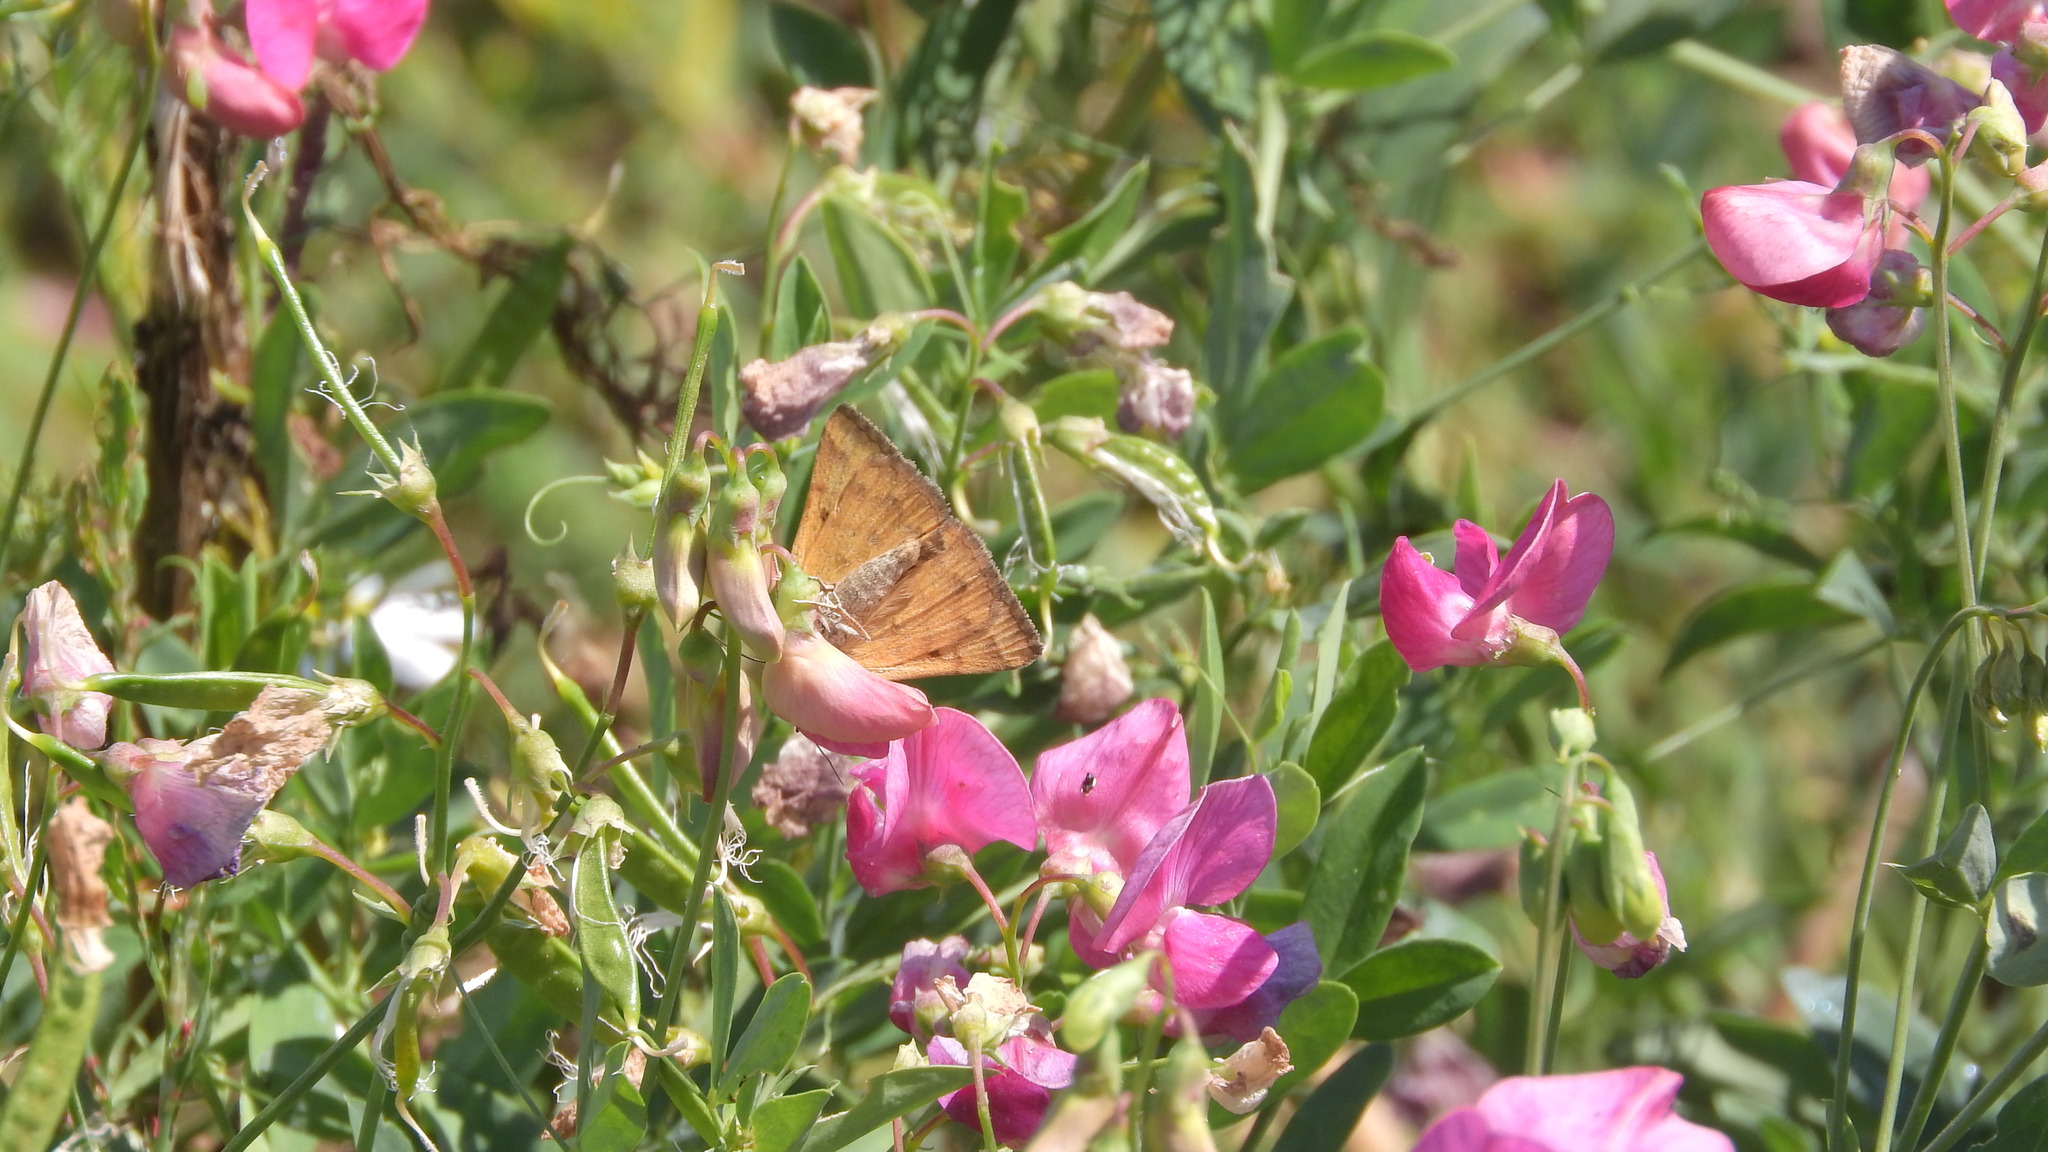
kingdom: Animalia
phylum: Arthropoda
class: Insecta
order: Lepidoptera
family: Erebidae
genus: Euclidia
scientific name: Euclidia glyphica
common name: Burnet companion
